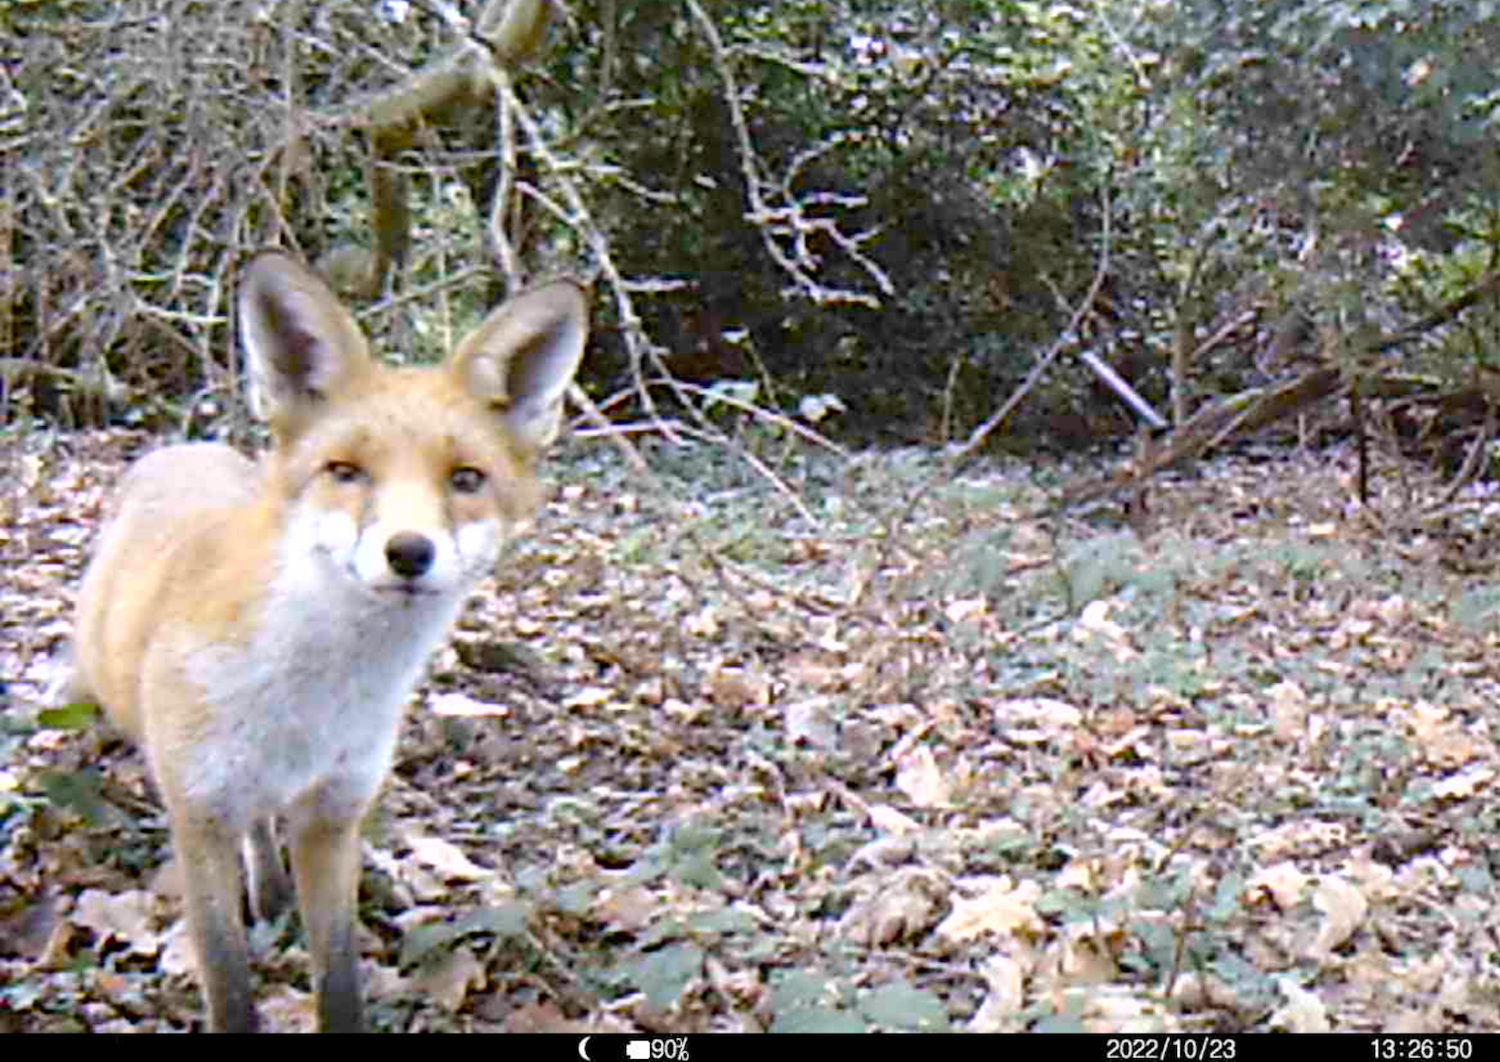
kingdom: Animalia
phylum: Chordata
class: Mammalia
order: Carnivora
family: Canidae
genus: Vulpes
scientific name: Vulpes vulpes
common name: Red fox
